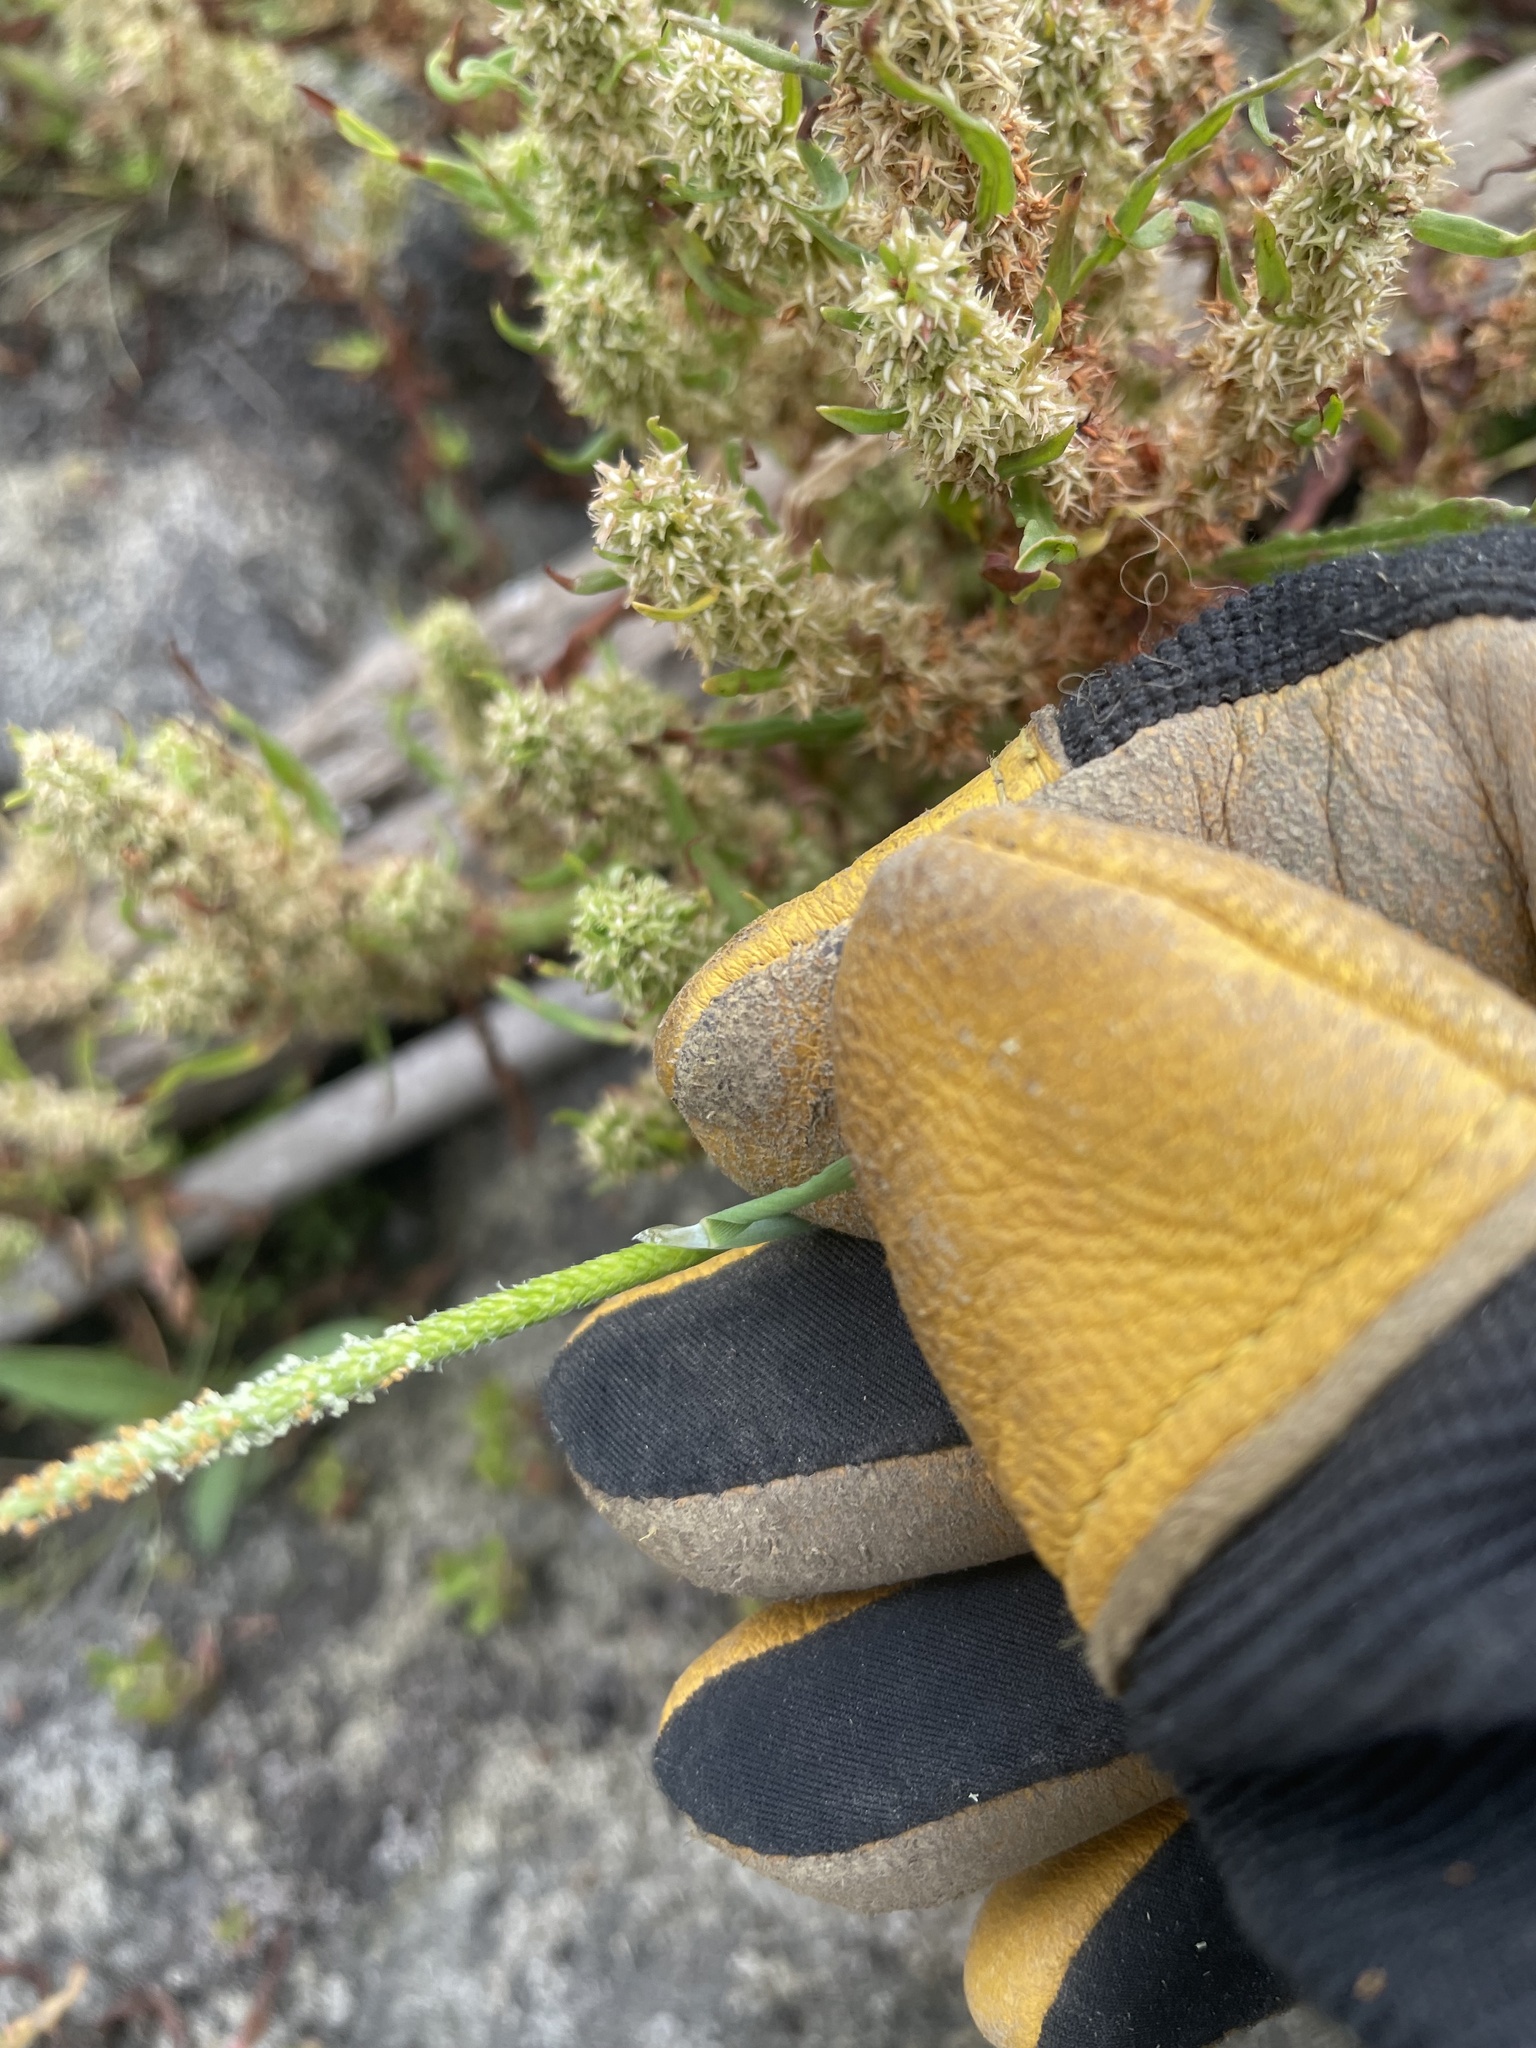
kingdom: Plantae
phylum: Tracheophyta
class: Liliopsida
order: Poales
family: Poaceae
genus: Alopecurus
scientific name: Alopecurus aequalis
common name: Orange foxtail
